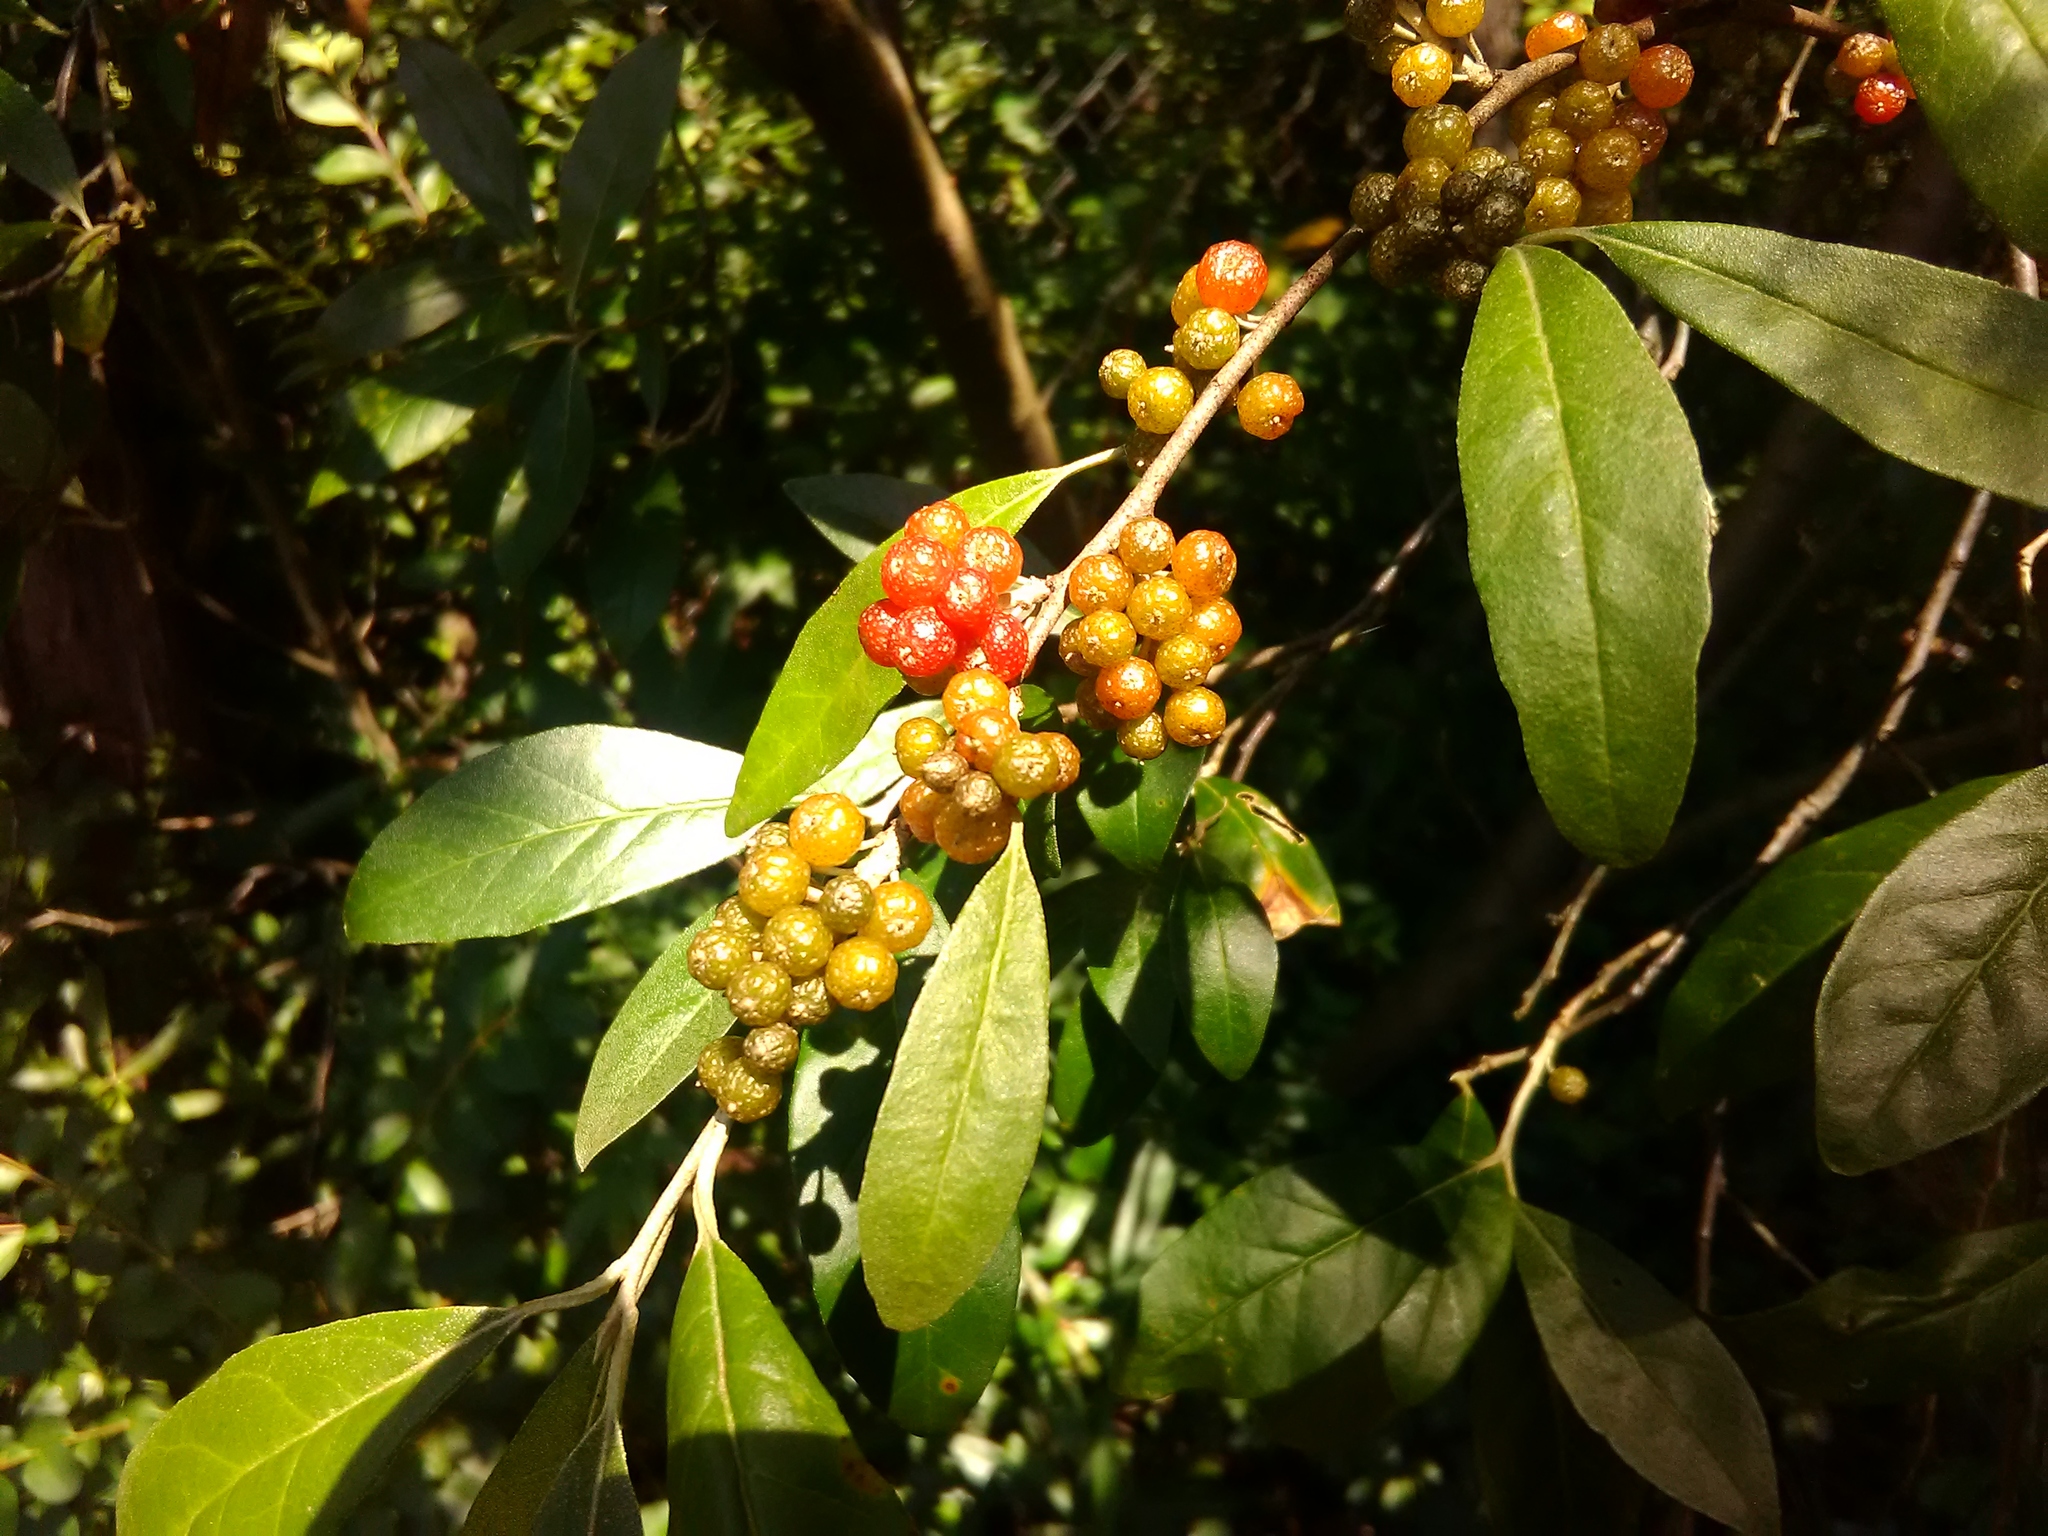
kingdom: Plantae
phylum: Tracheophyta
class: Magnoliopsida
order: Rosales
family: Elaeagnaceae
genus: Elaeagnus
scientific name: Elaeagnus umbellata
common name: Autumn olive
